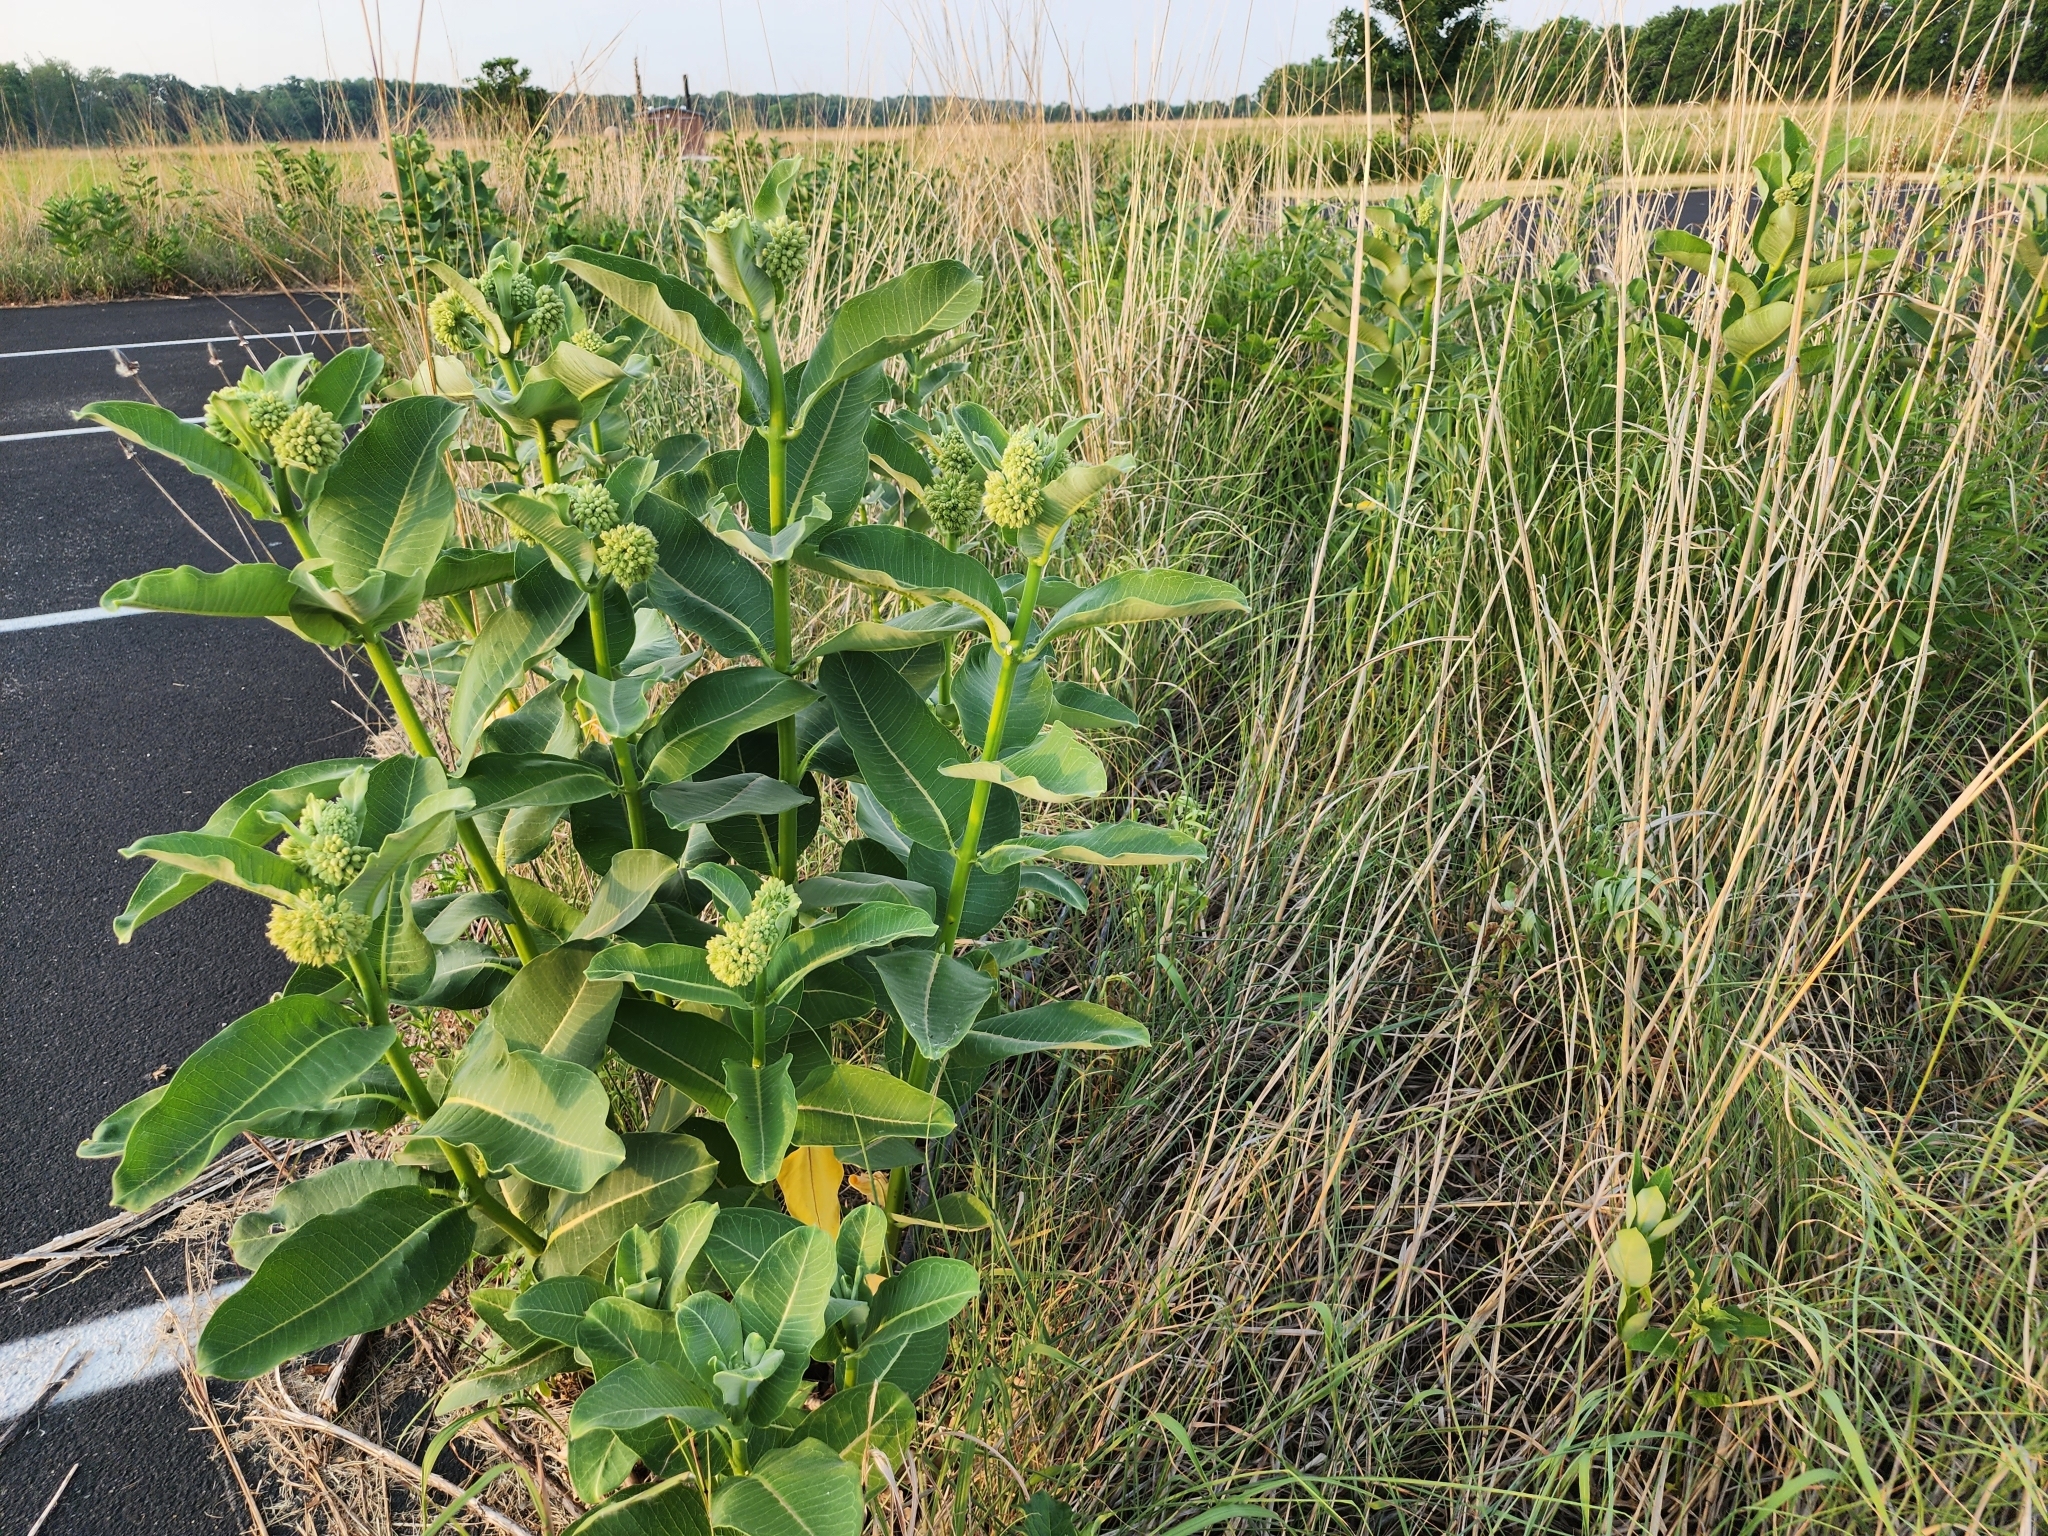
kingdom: Plantae
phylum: Tracheophyta
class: Magnoliopsida
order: Gentianales
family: Apocynaceae
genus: Asclepias
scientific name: Asclepias syriaca
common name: Common milkweed
